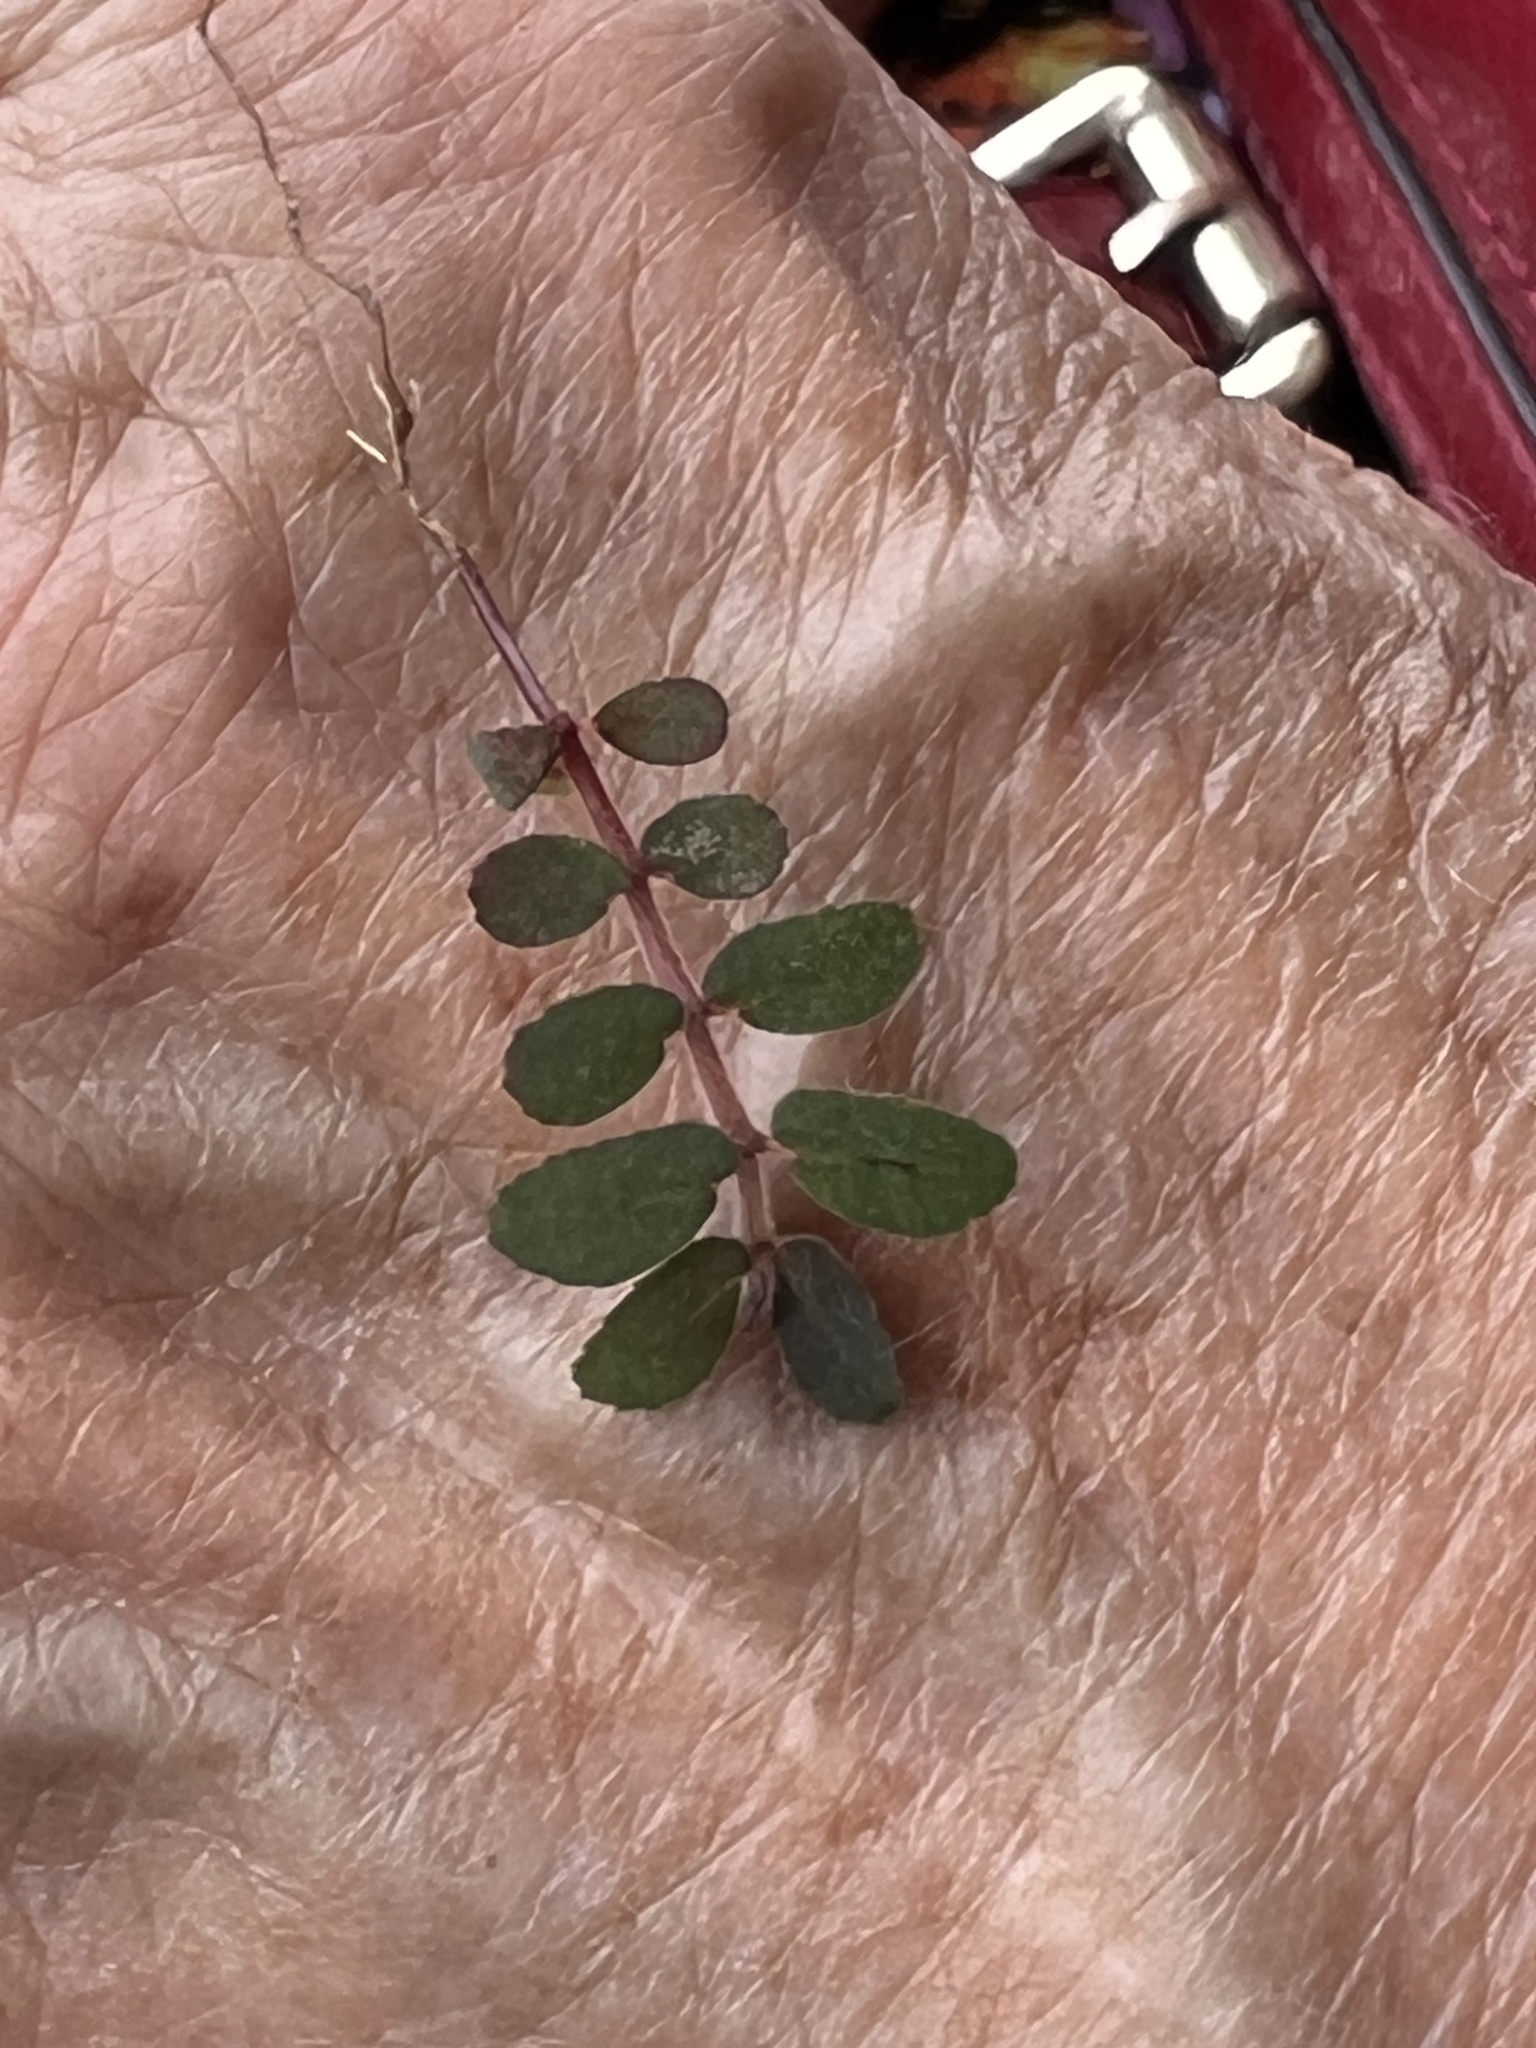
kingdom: Plantae
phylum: Tracheophyta
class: Magnoliopsida
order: Malpighiales
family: Euphorbiaceae
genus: Euphorbia
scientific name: Euphorbia maculata
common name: Spotted spurge
